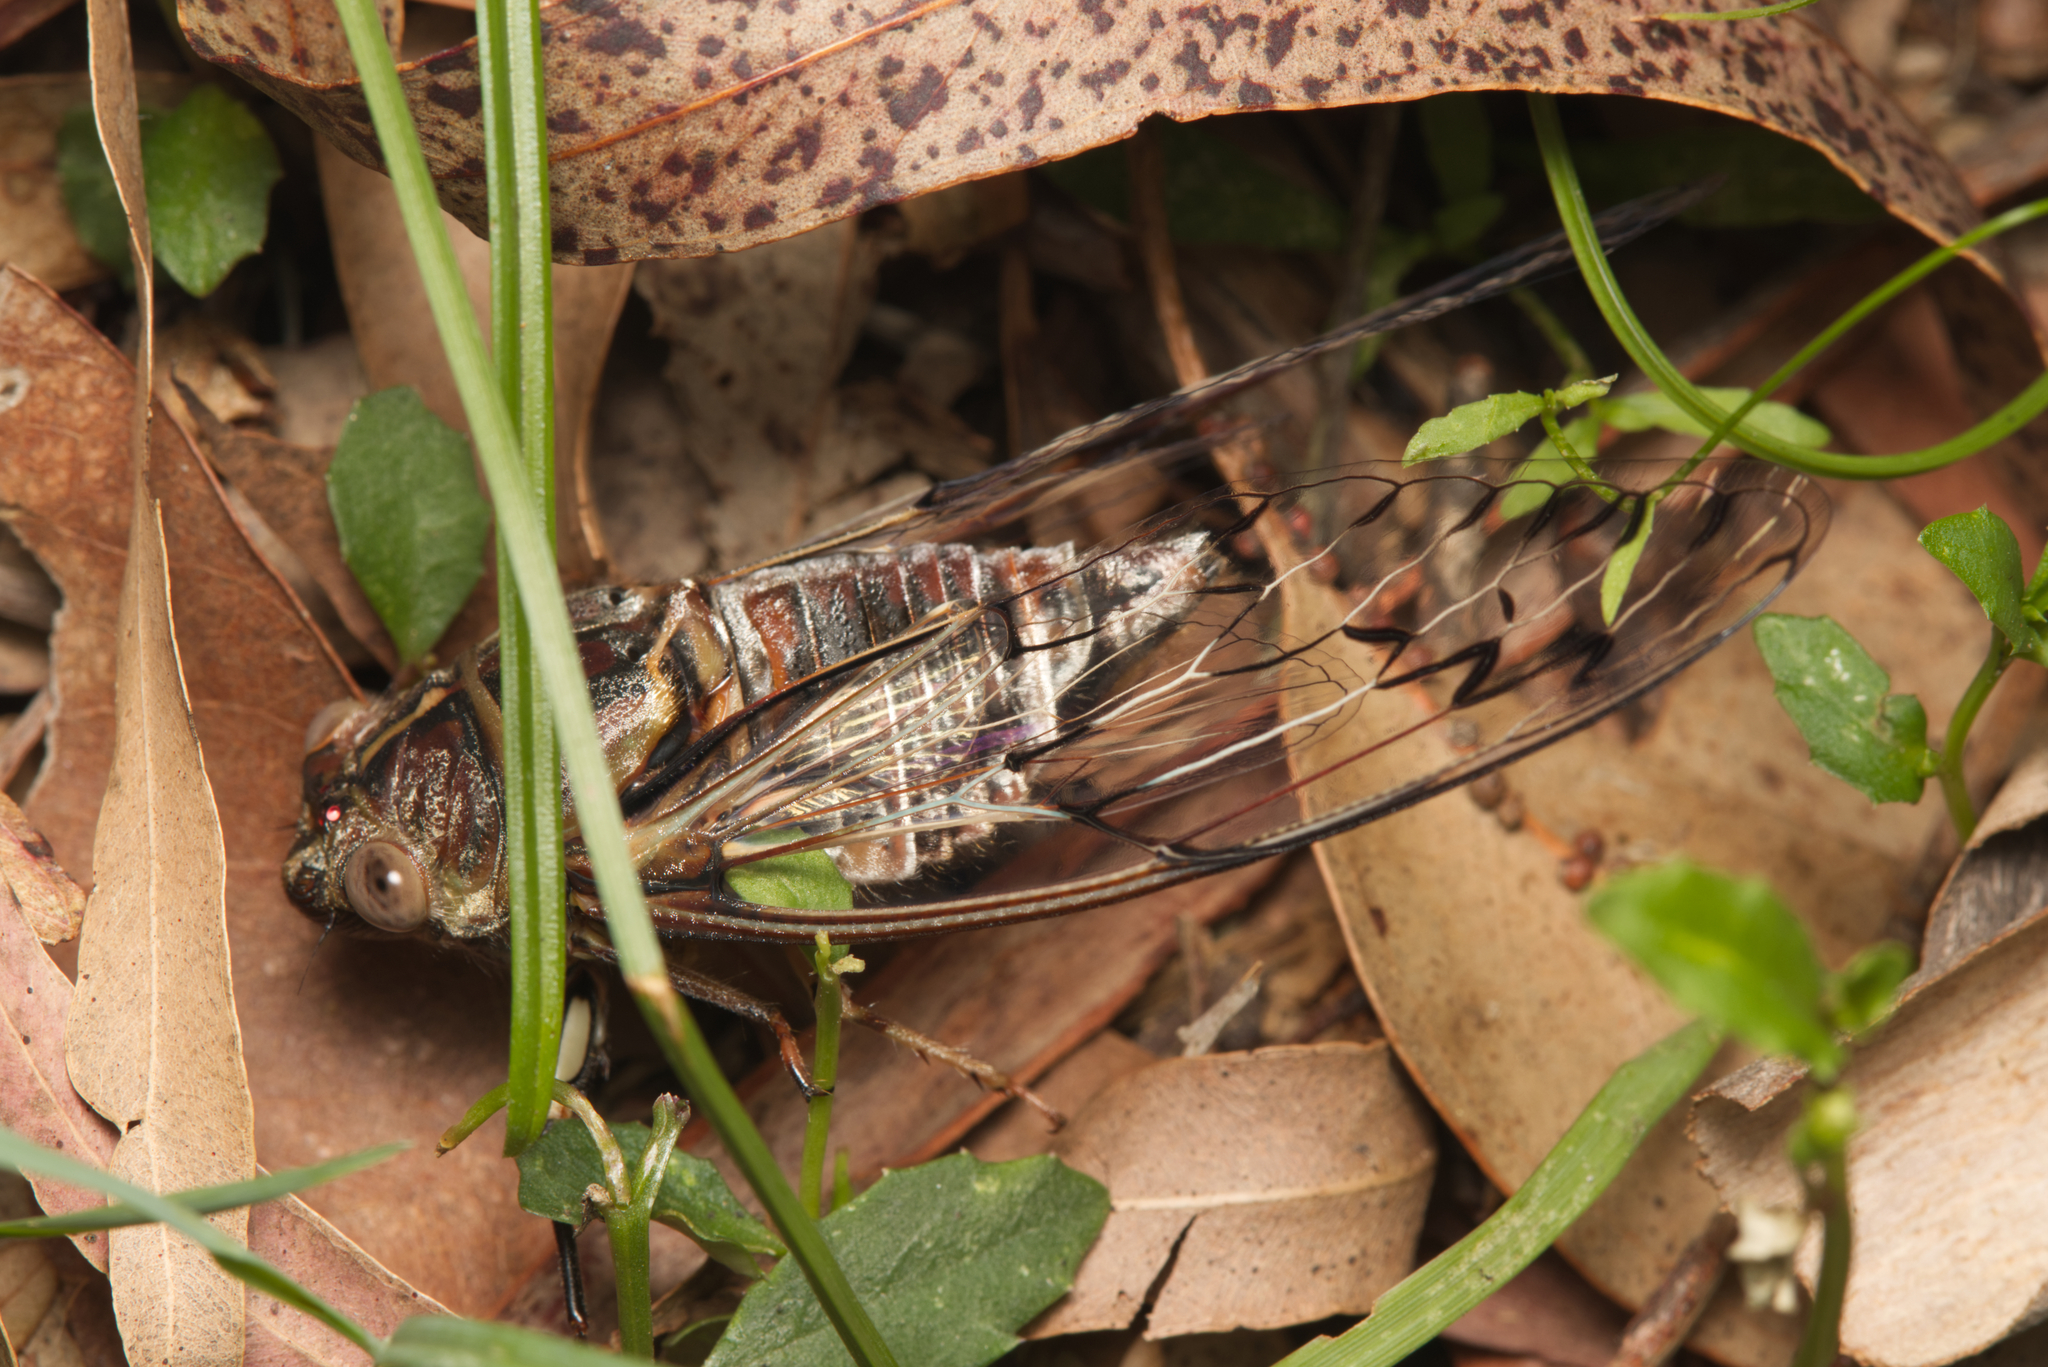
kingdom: Animalia
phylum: Arthropoda
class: Insecta
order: Hemiptera
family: Cicadidae
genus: Henicopsaltria
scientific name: Henicopsaltria eydouxii
